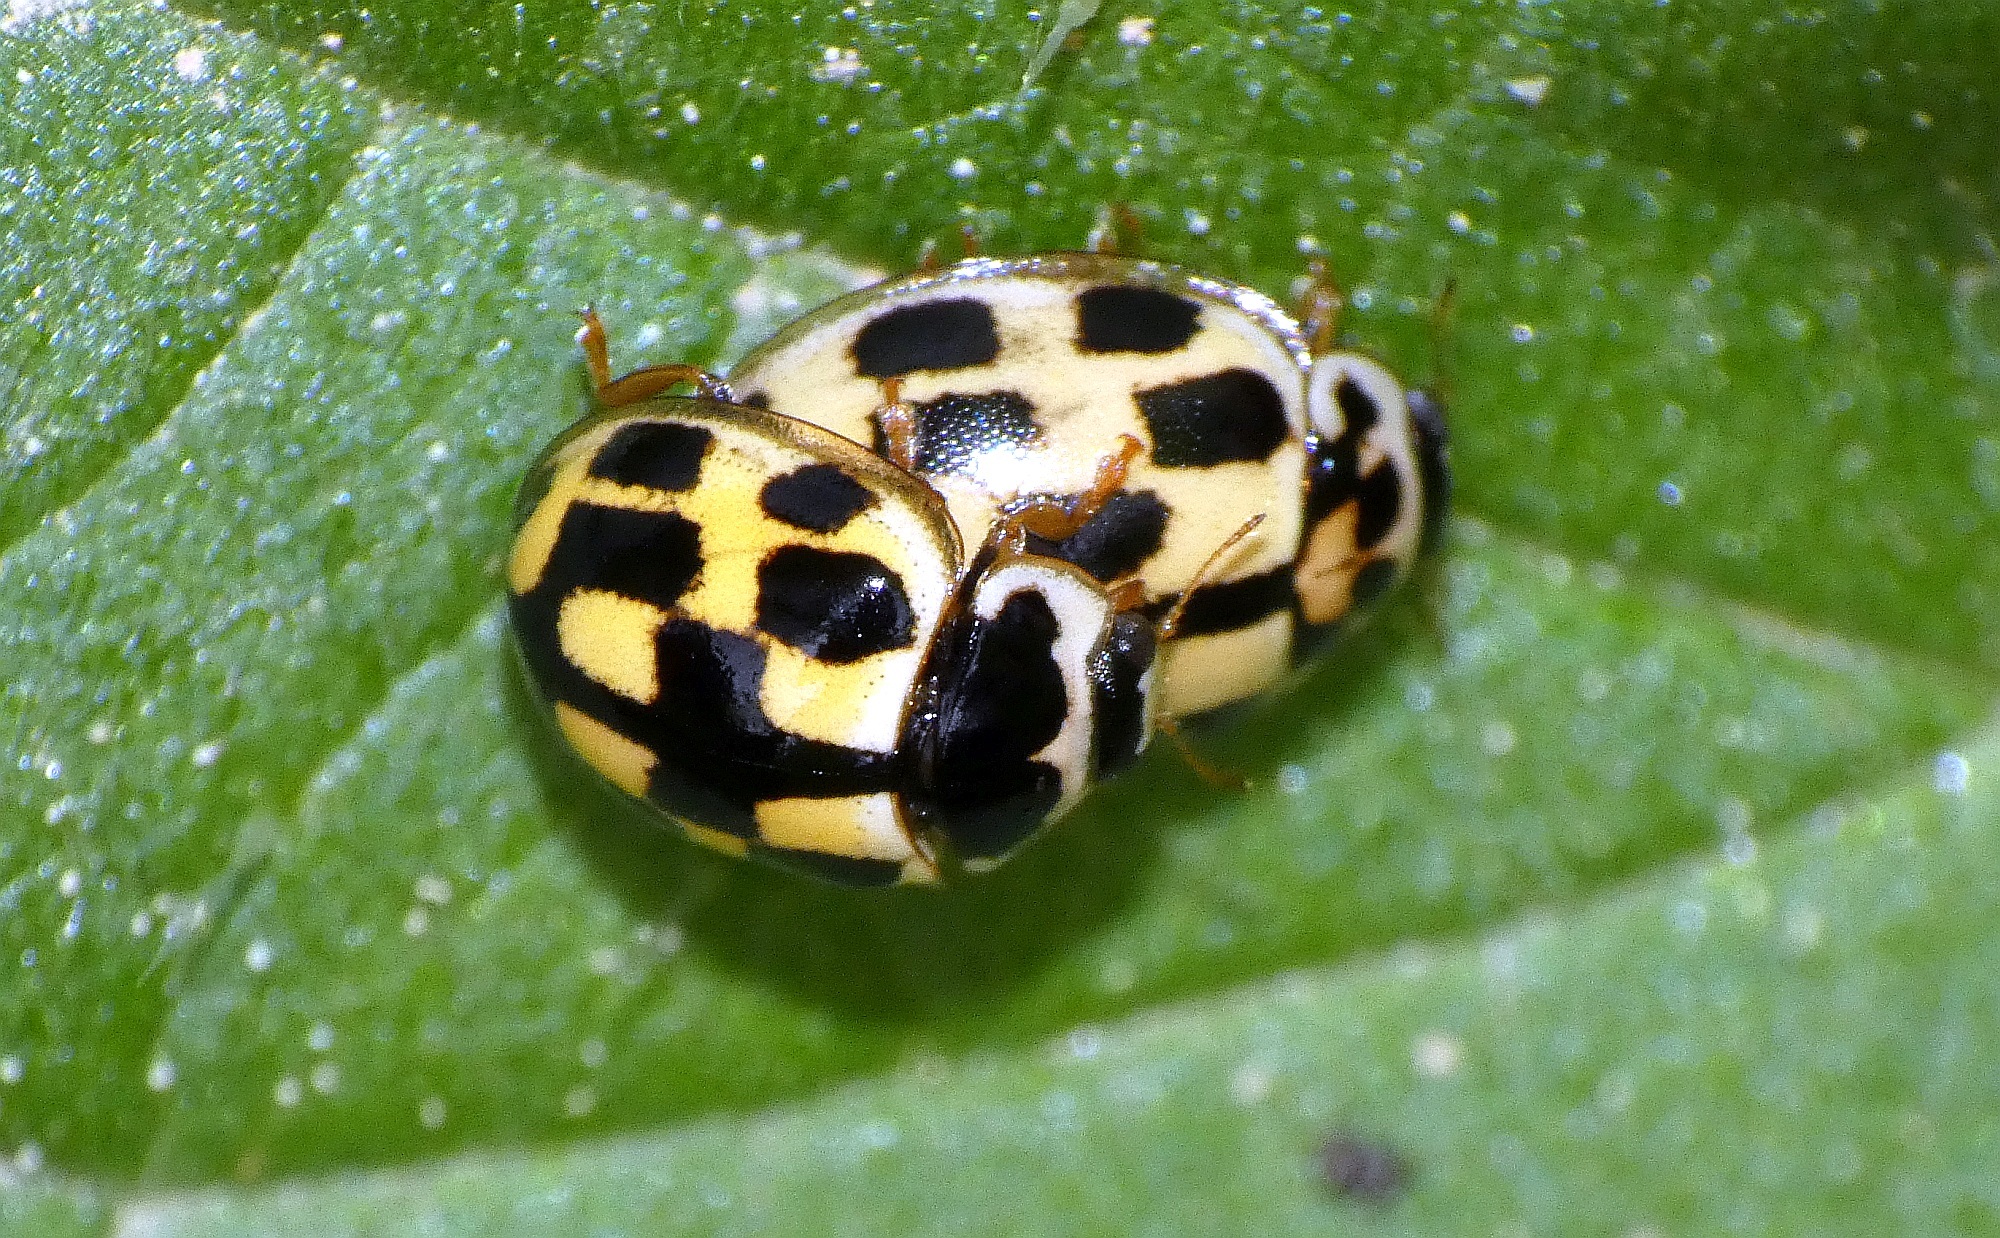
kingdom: Animalia
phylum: Arthropoda
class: Insecta
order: Coleoptera
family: Coccinellidae
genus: Propylaea
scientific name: Propylaea quatuordecimpunctata
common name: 14-spotted ladybird beetle
